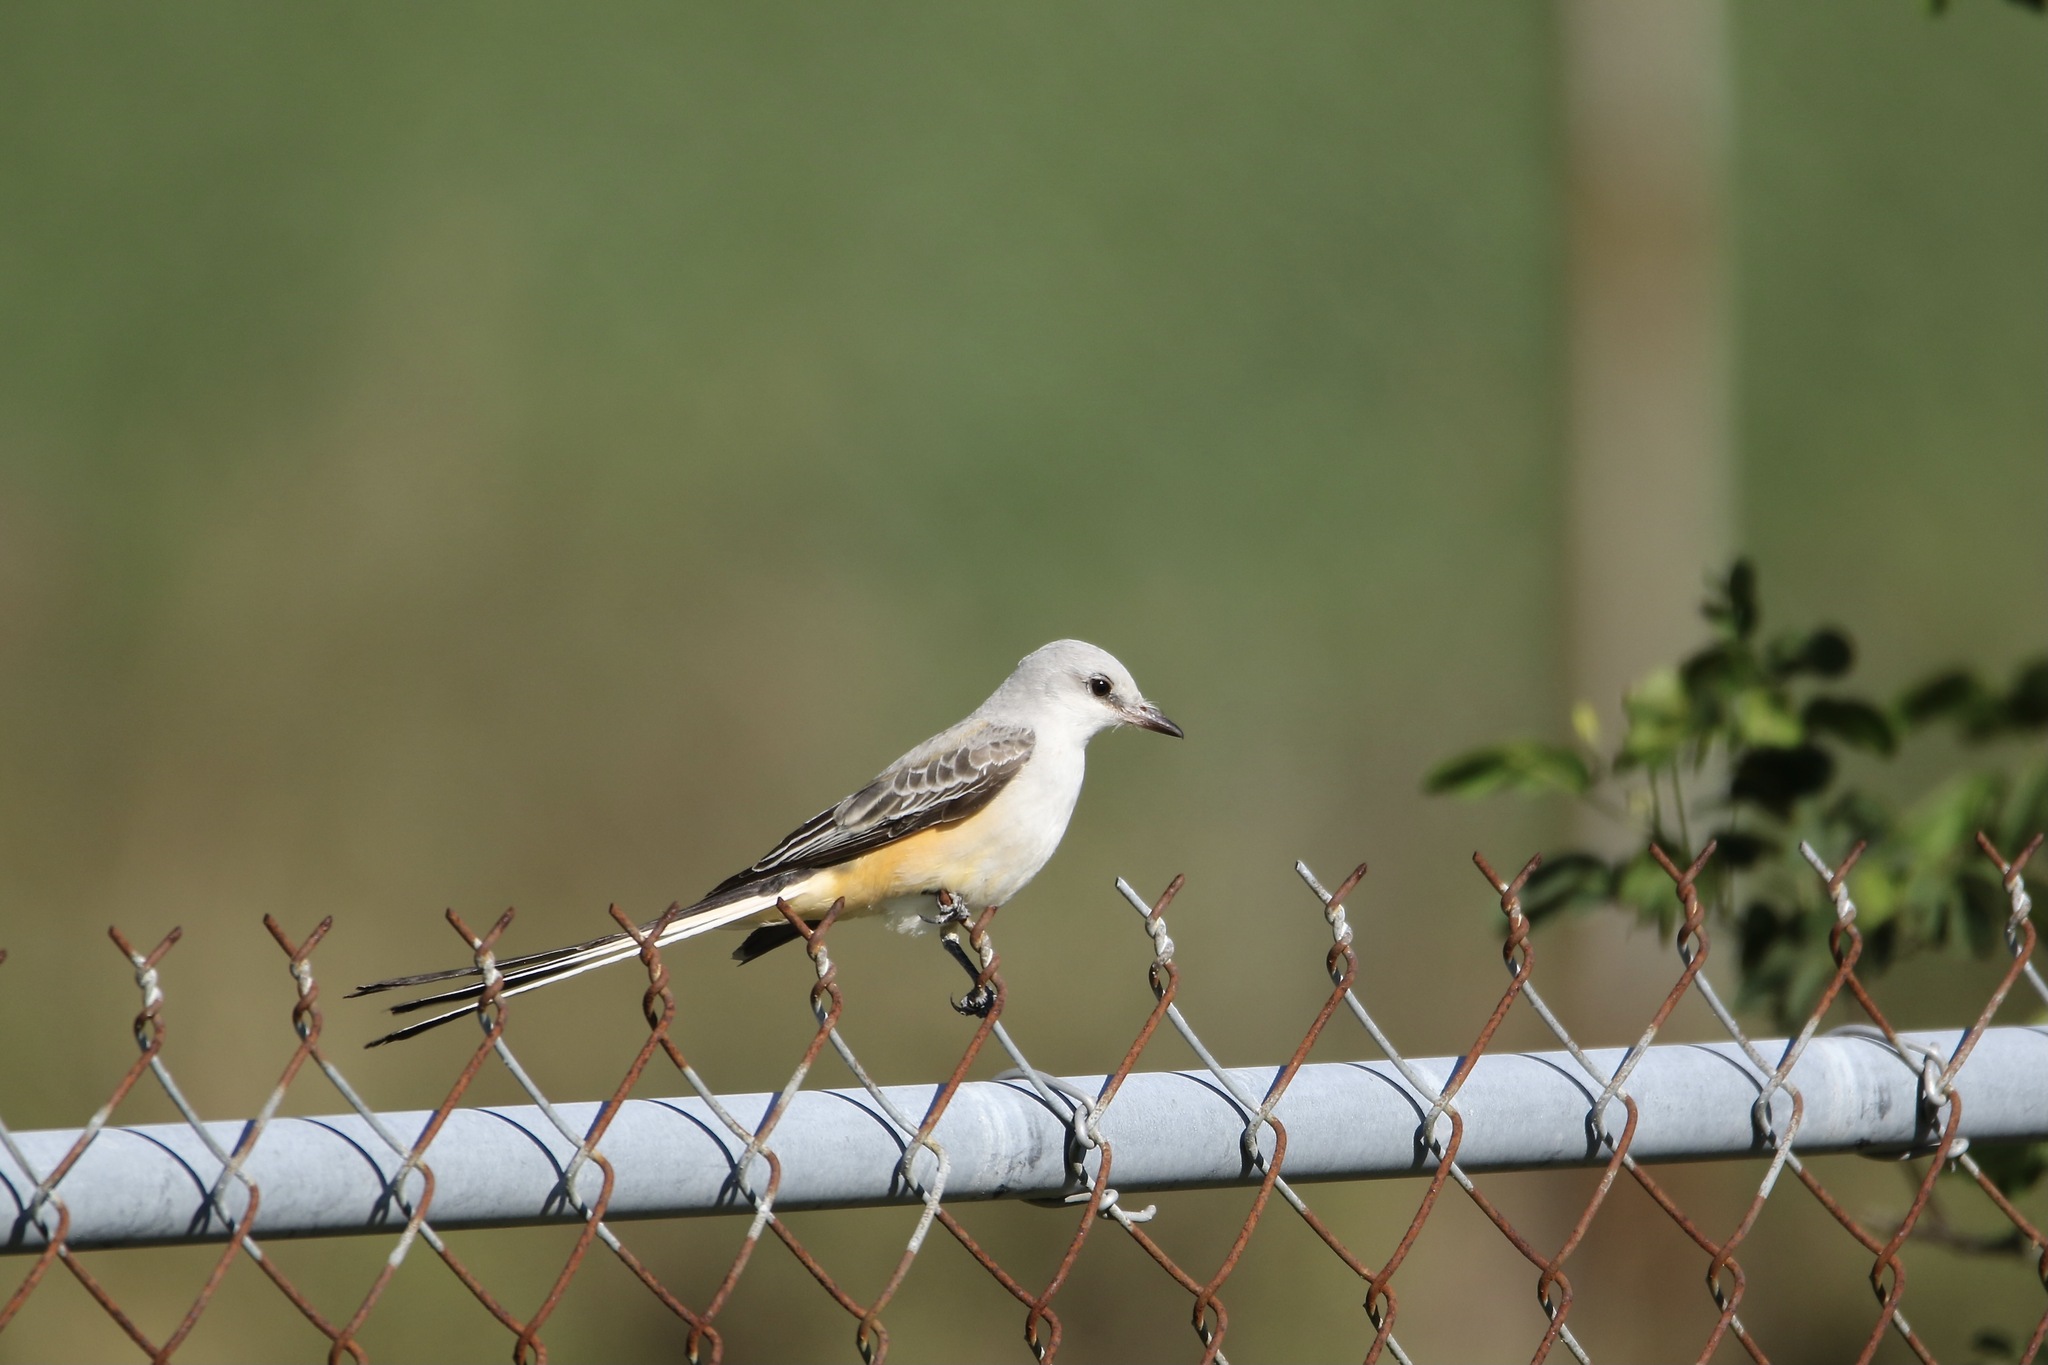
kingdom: Animalia
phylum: Chordata
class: Aves
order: Passeriformes
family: Tyrannidae
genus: Tyrannus
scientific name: Tyrannus forficatus
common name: Scissor-tailed flycatcher
